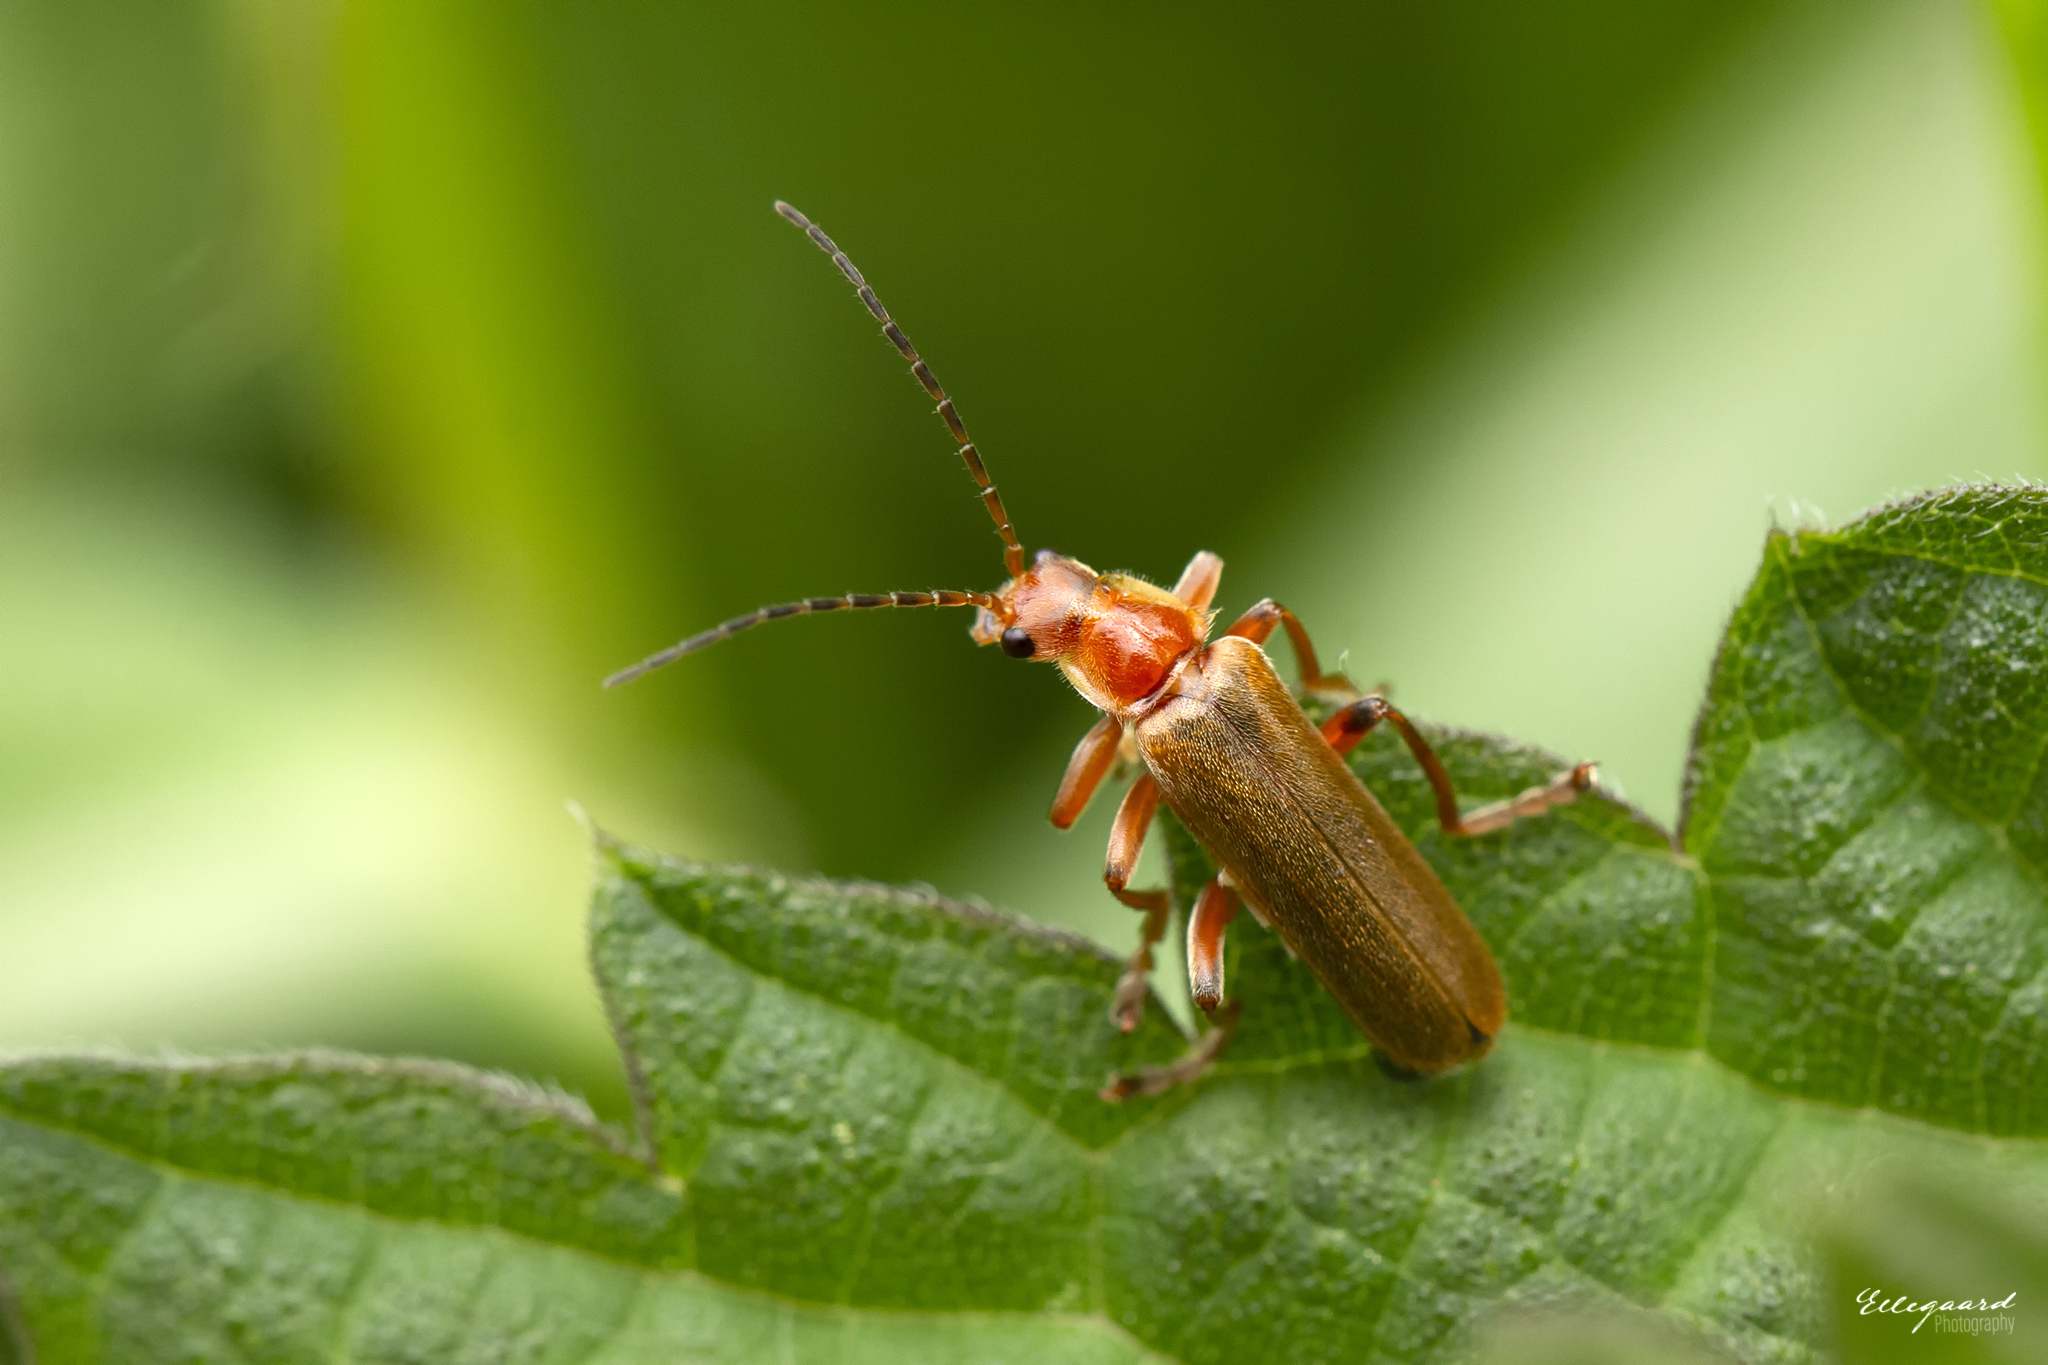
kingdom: Animalia
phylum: Arthropoda
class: Insecta
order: Coleoptera
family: Cantharidae
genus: Cantharis
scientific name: Cantharis pallida
